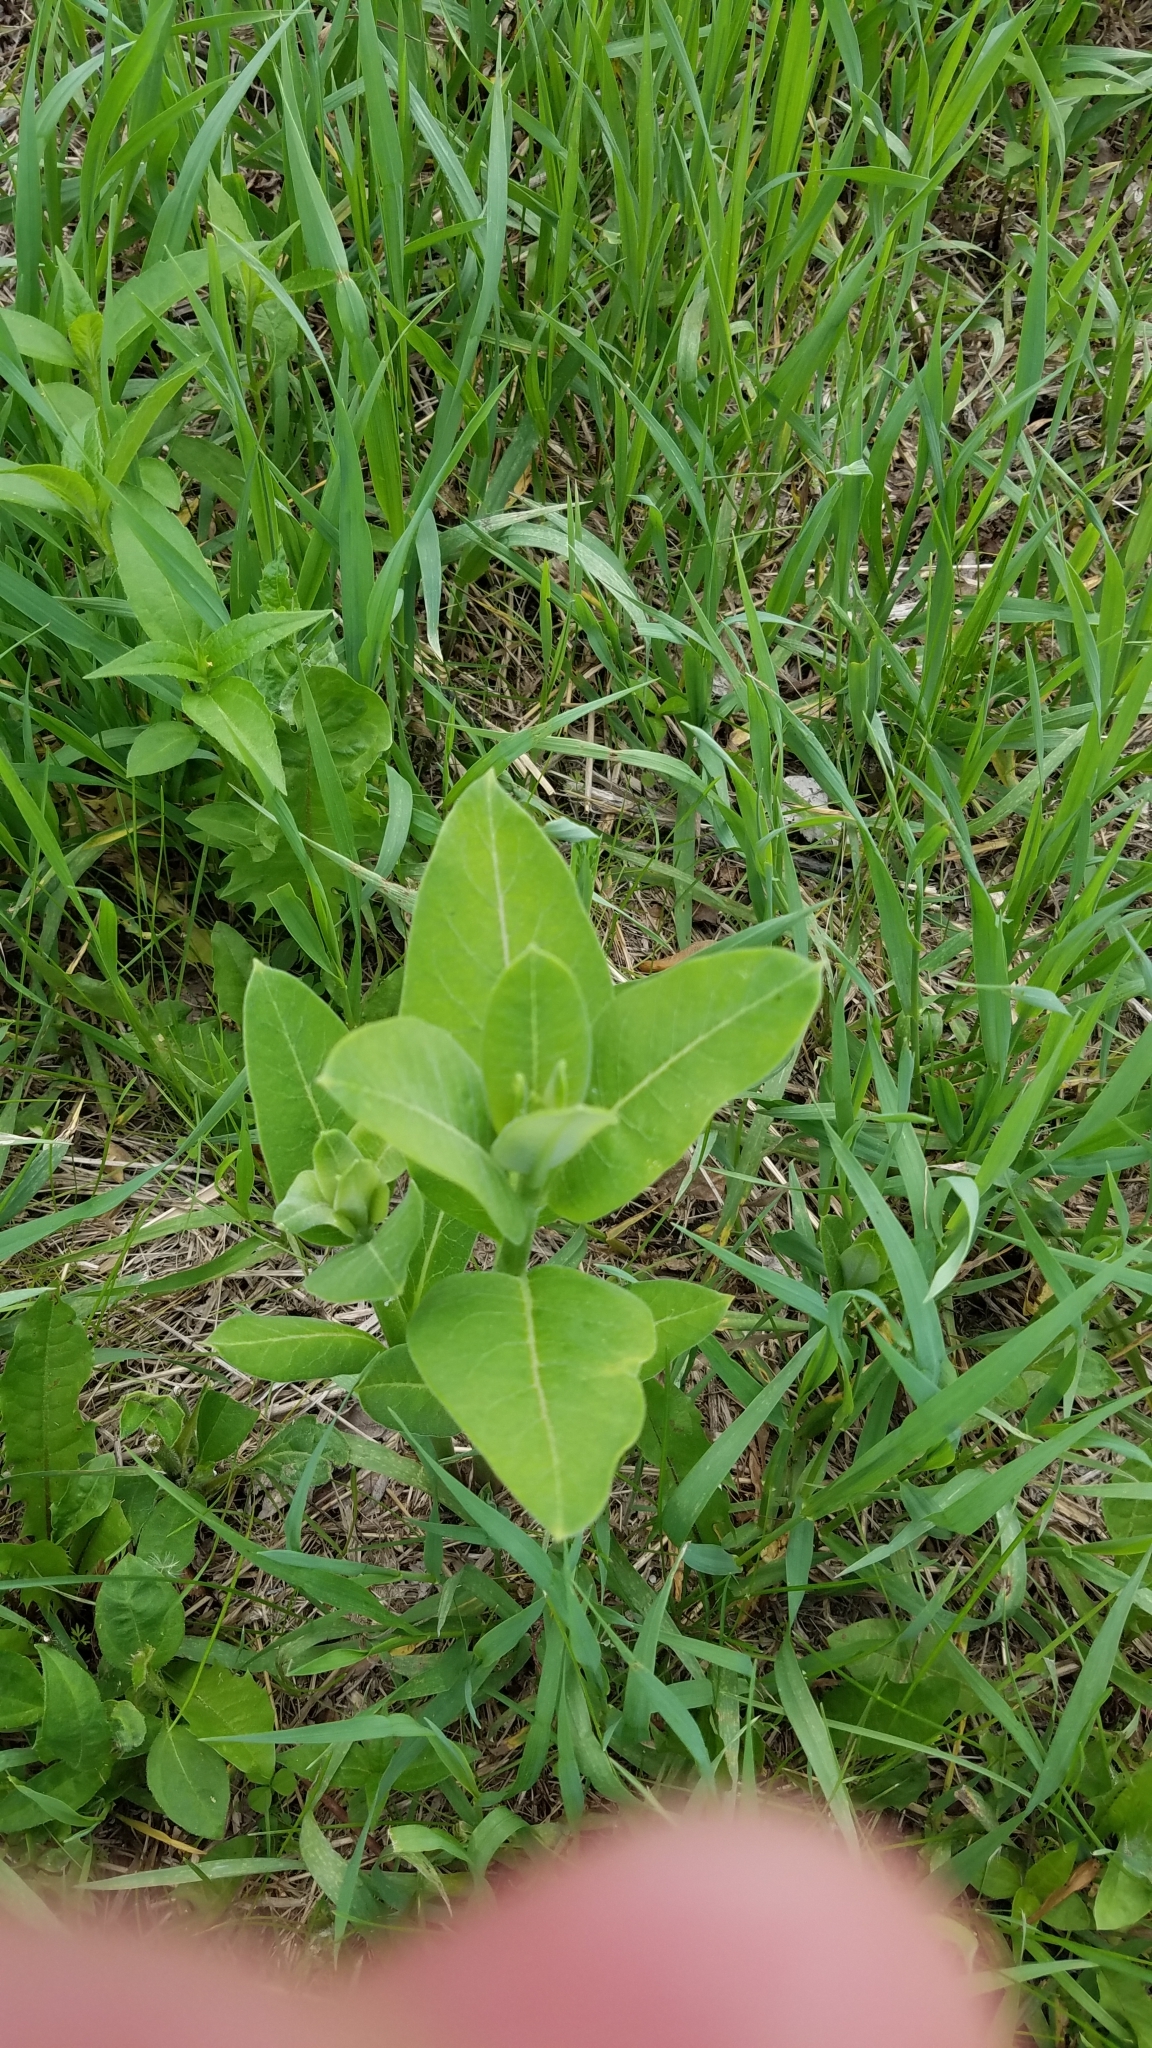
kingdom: Plantae
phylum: Tracheophyta
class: Magnoliopsida
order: Gentianales
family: Apocynaceae
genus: Asclepias
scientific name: Asclepias syriaca
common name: Common milkweed
